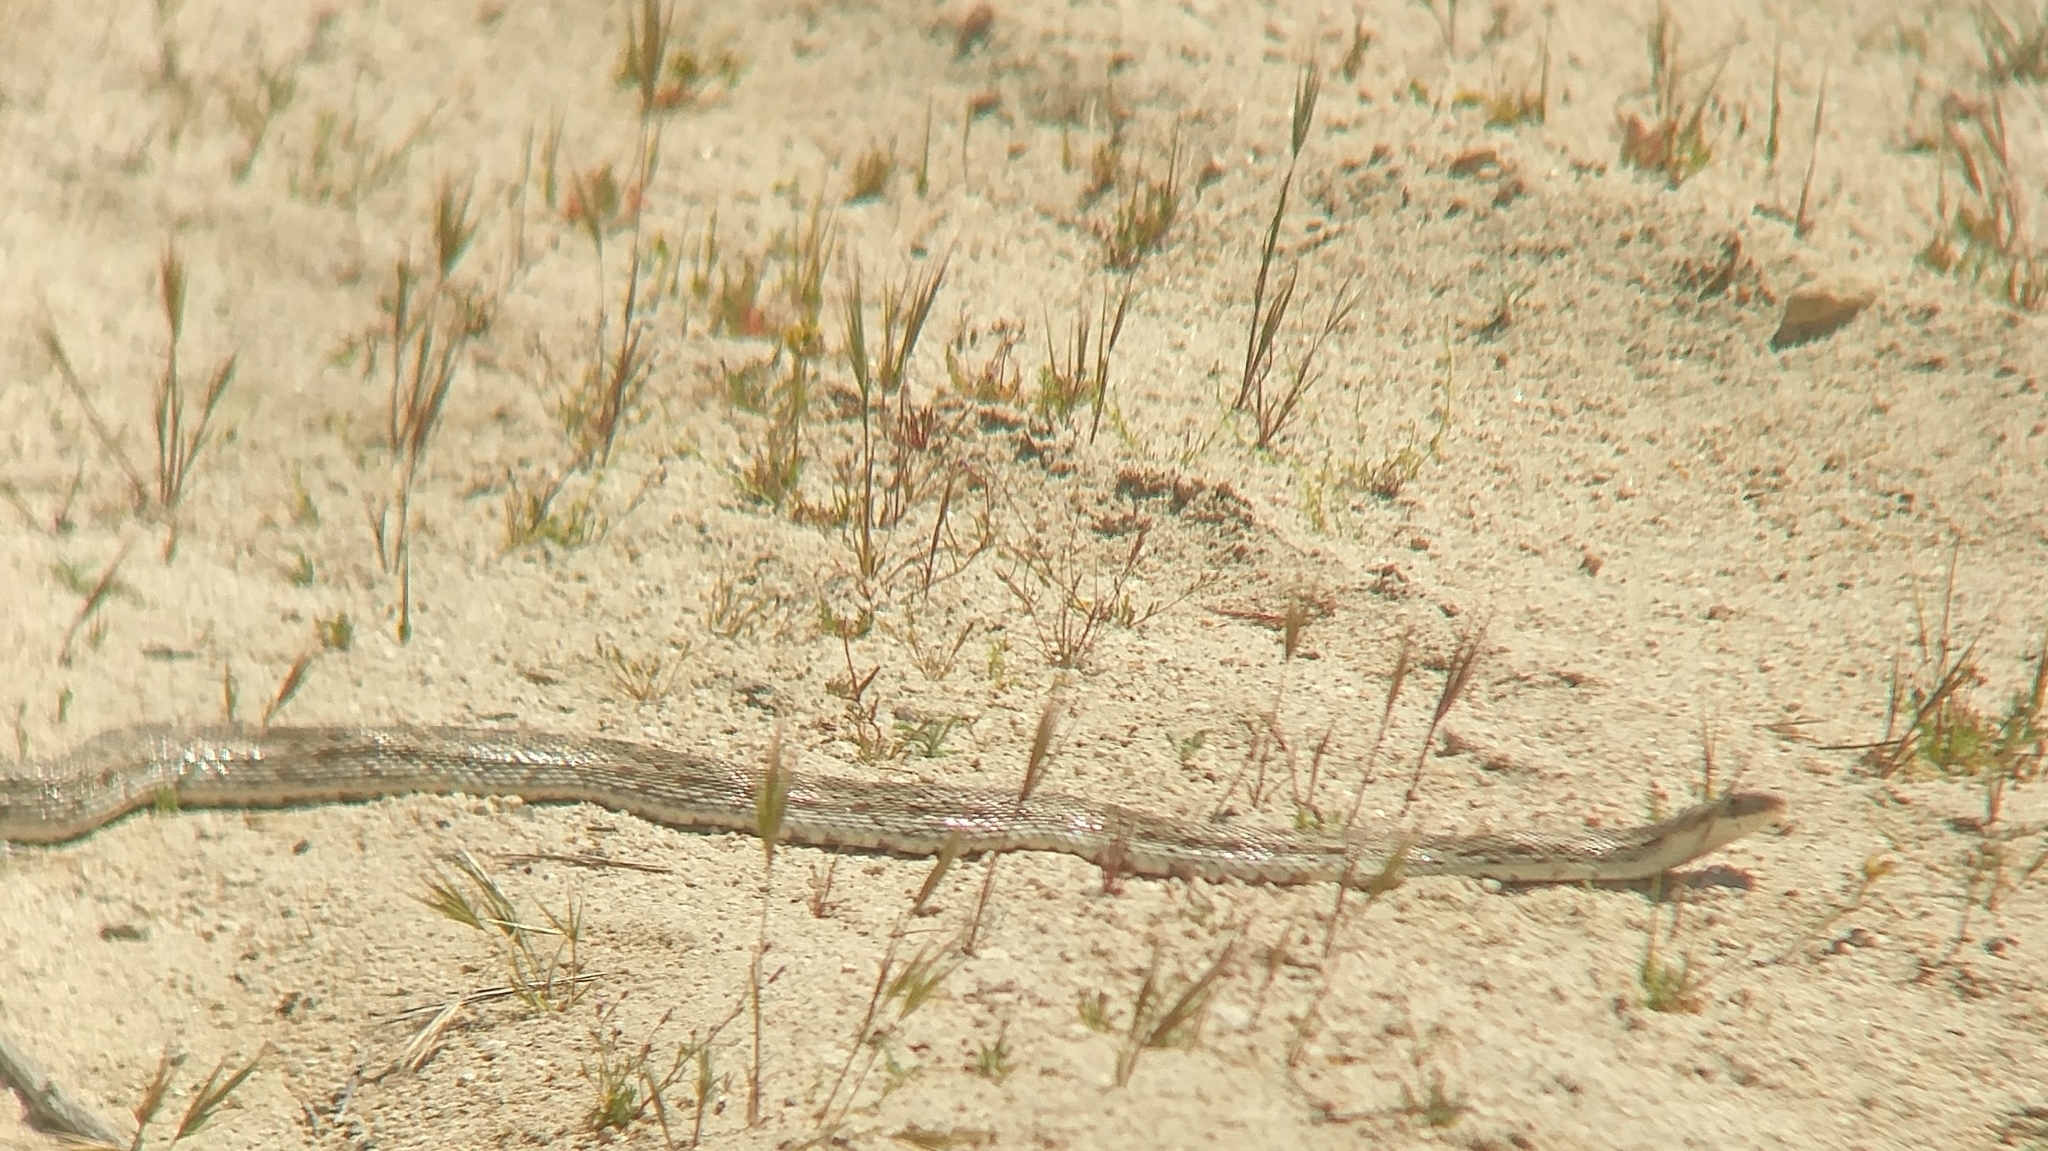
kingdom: Animalia
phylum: Chordata
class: Squamata
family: Colubridae
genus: Pituophis
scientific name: Pituophis catenifer
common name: Gopher snake
